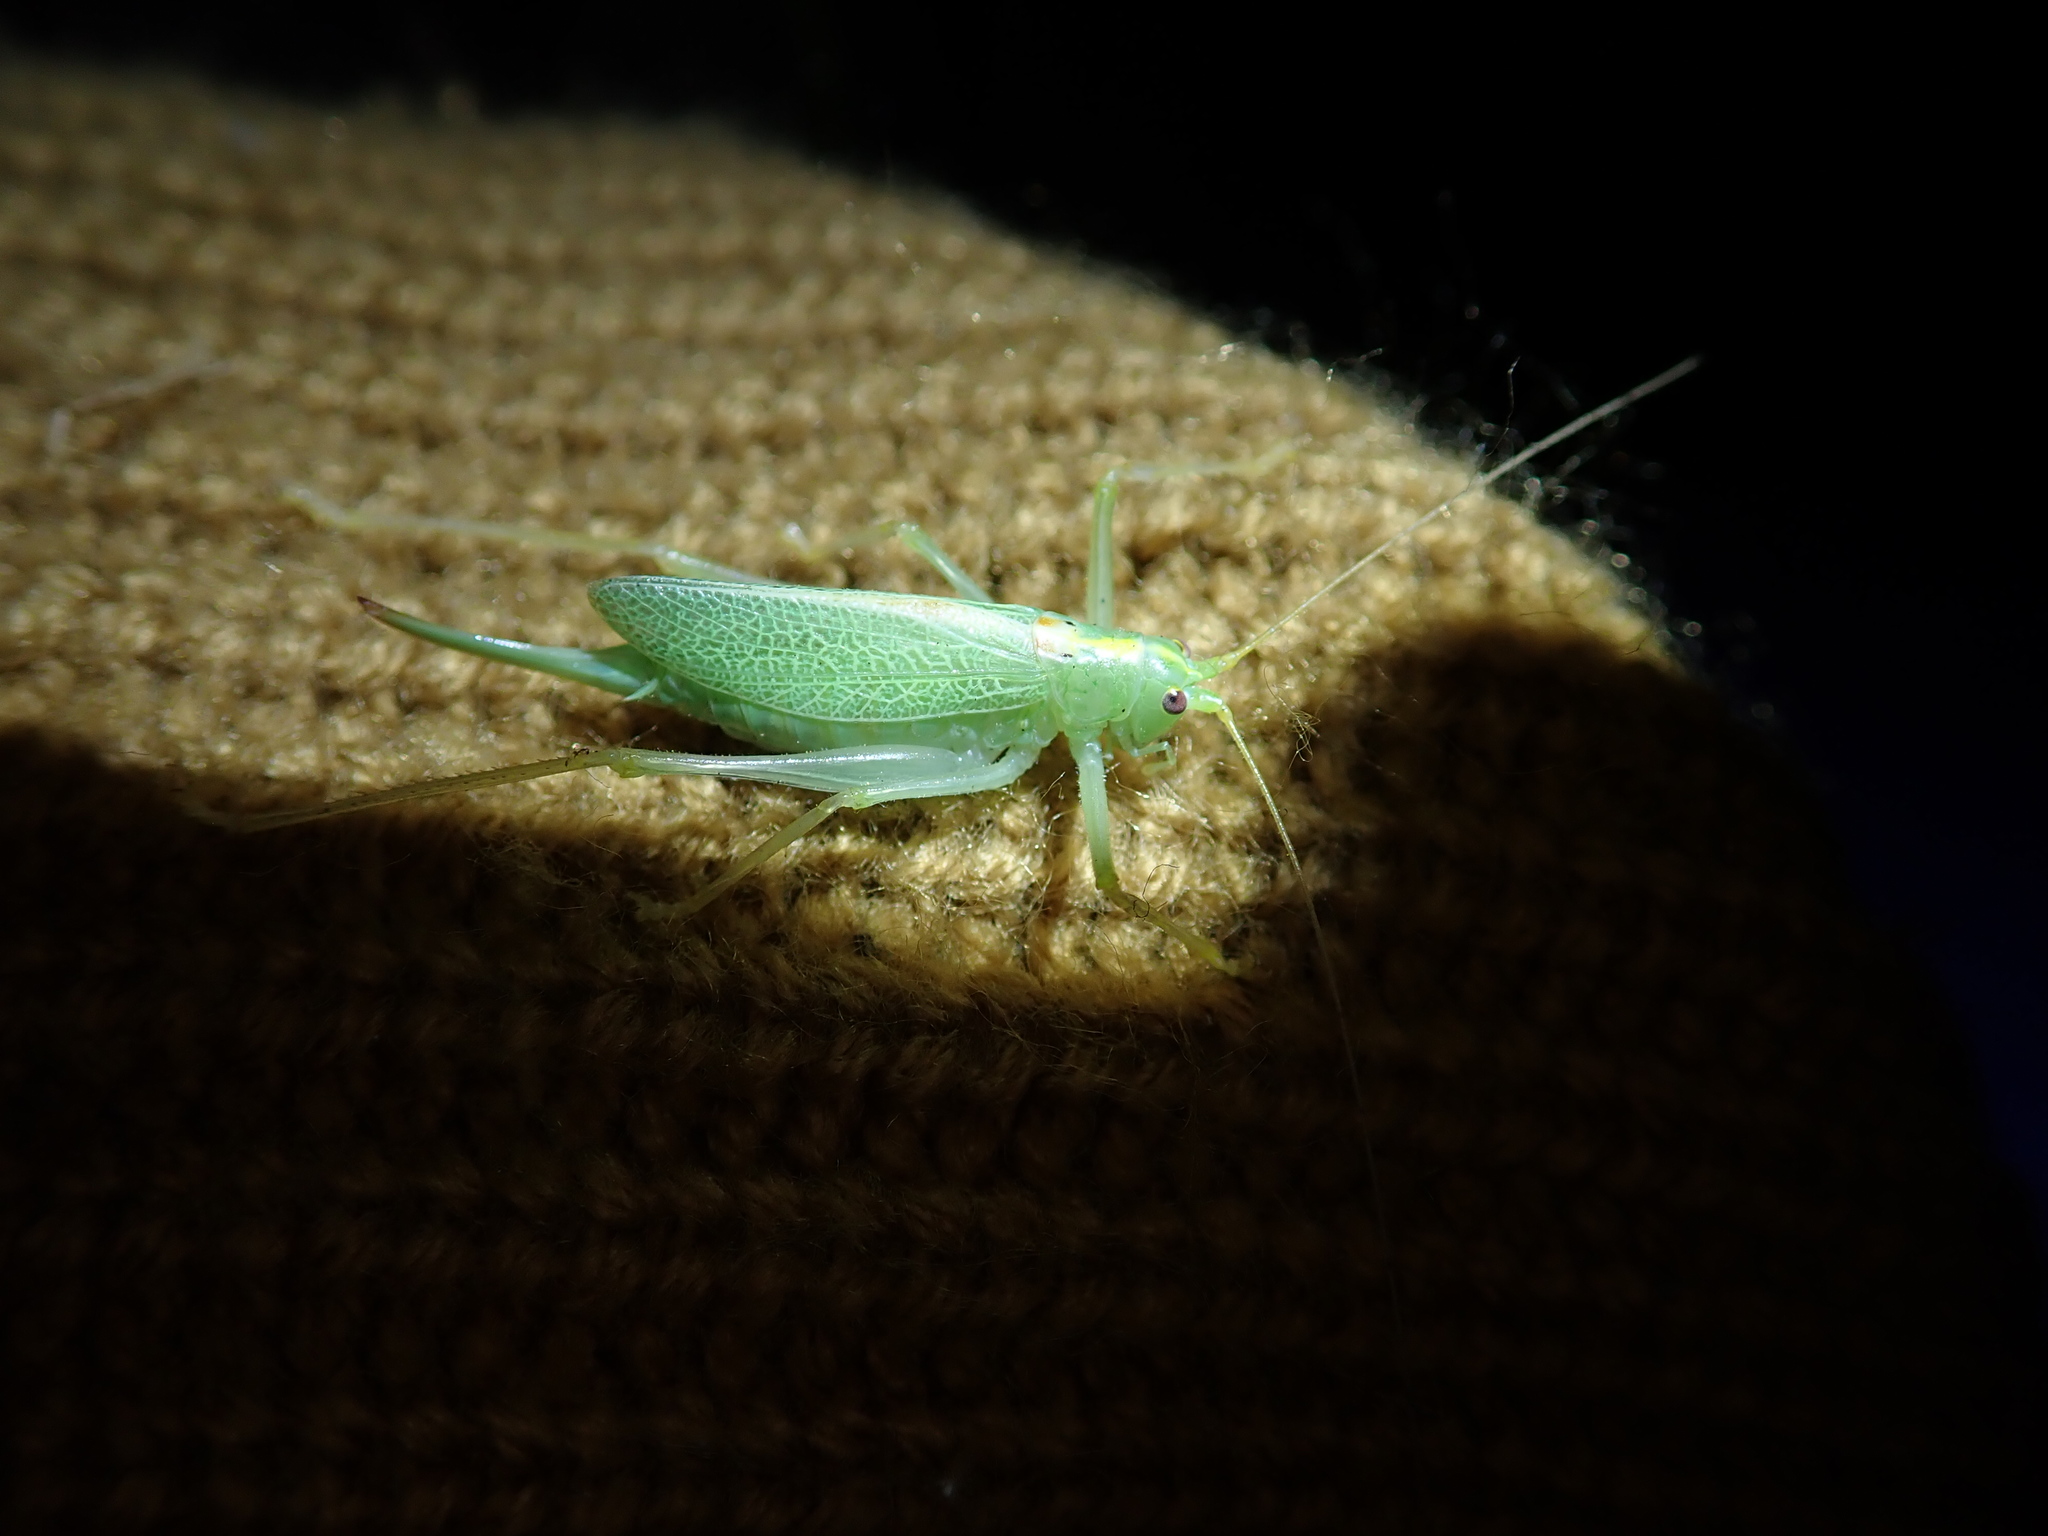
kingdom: Animalia
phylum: Arthropoda
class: Insecta
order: Orthoptera
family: Tettigoniidae
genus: Meconema
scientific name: Meconema thalassinum
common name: Oak bush-cricket
